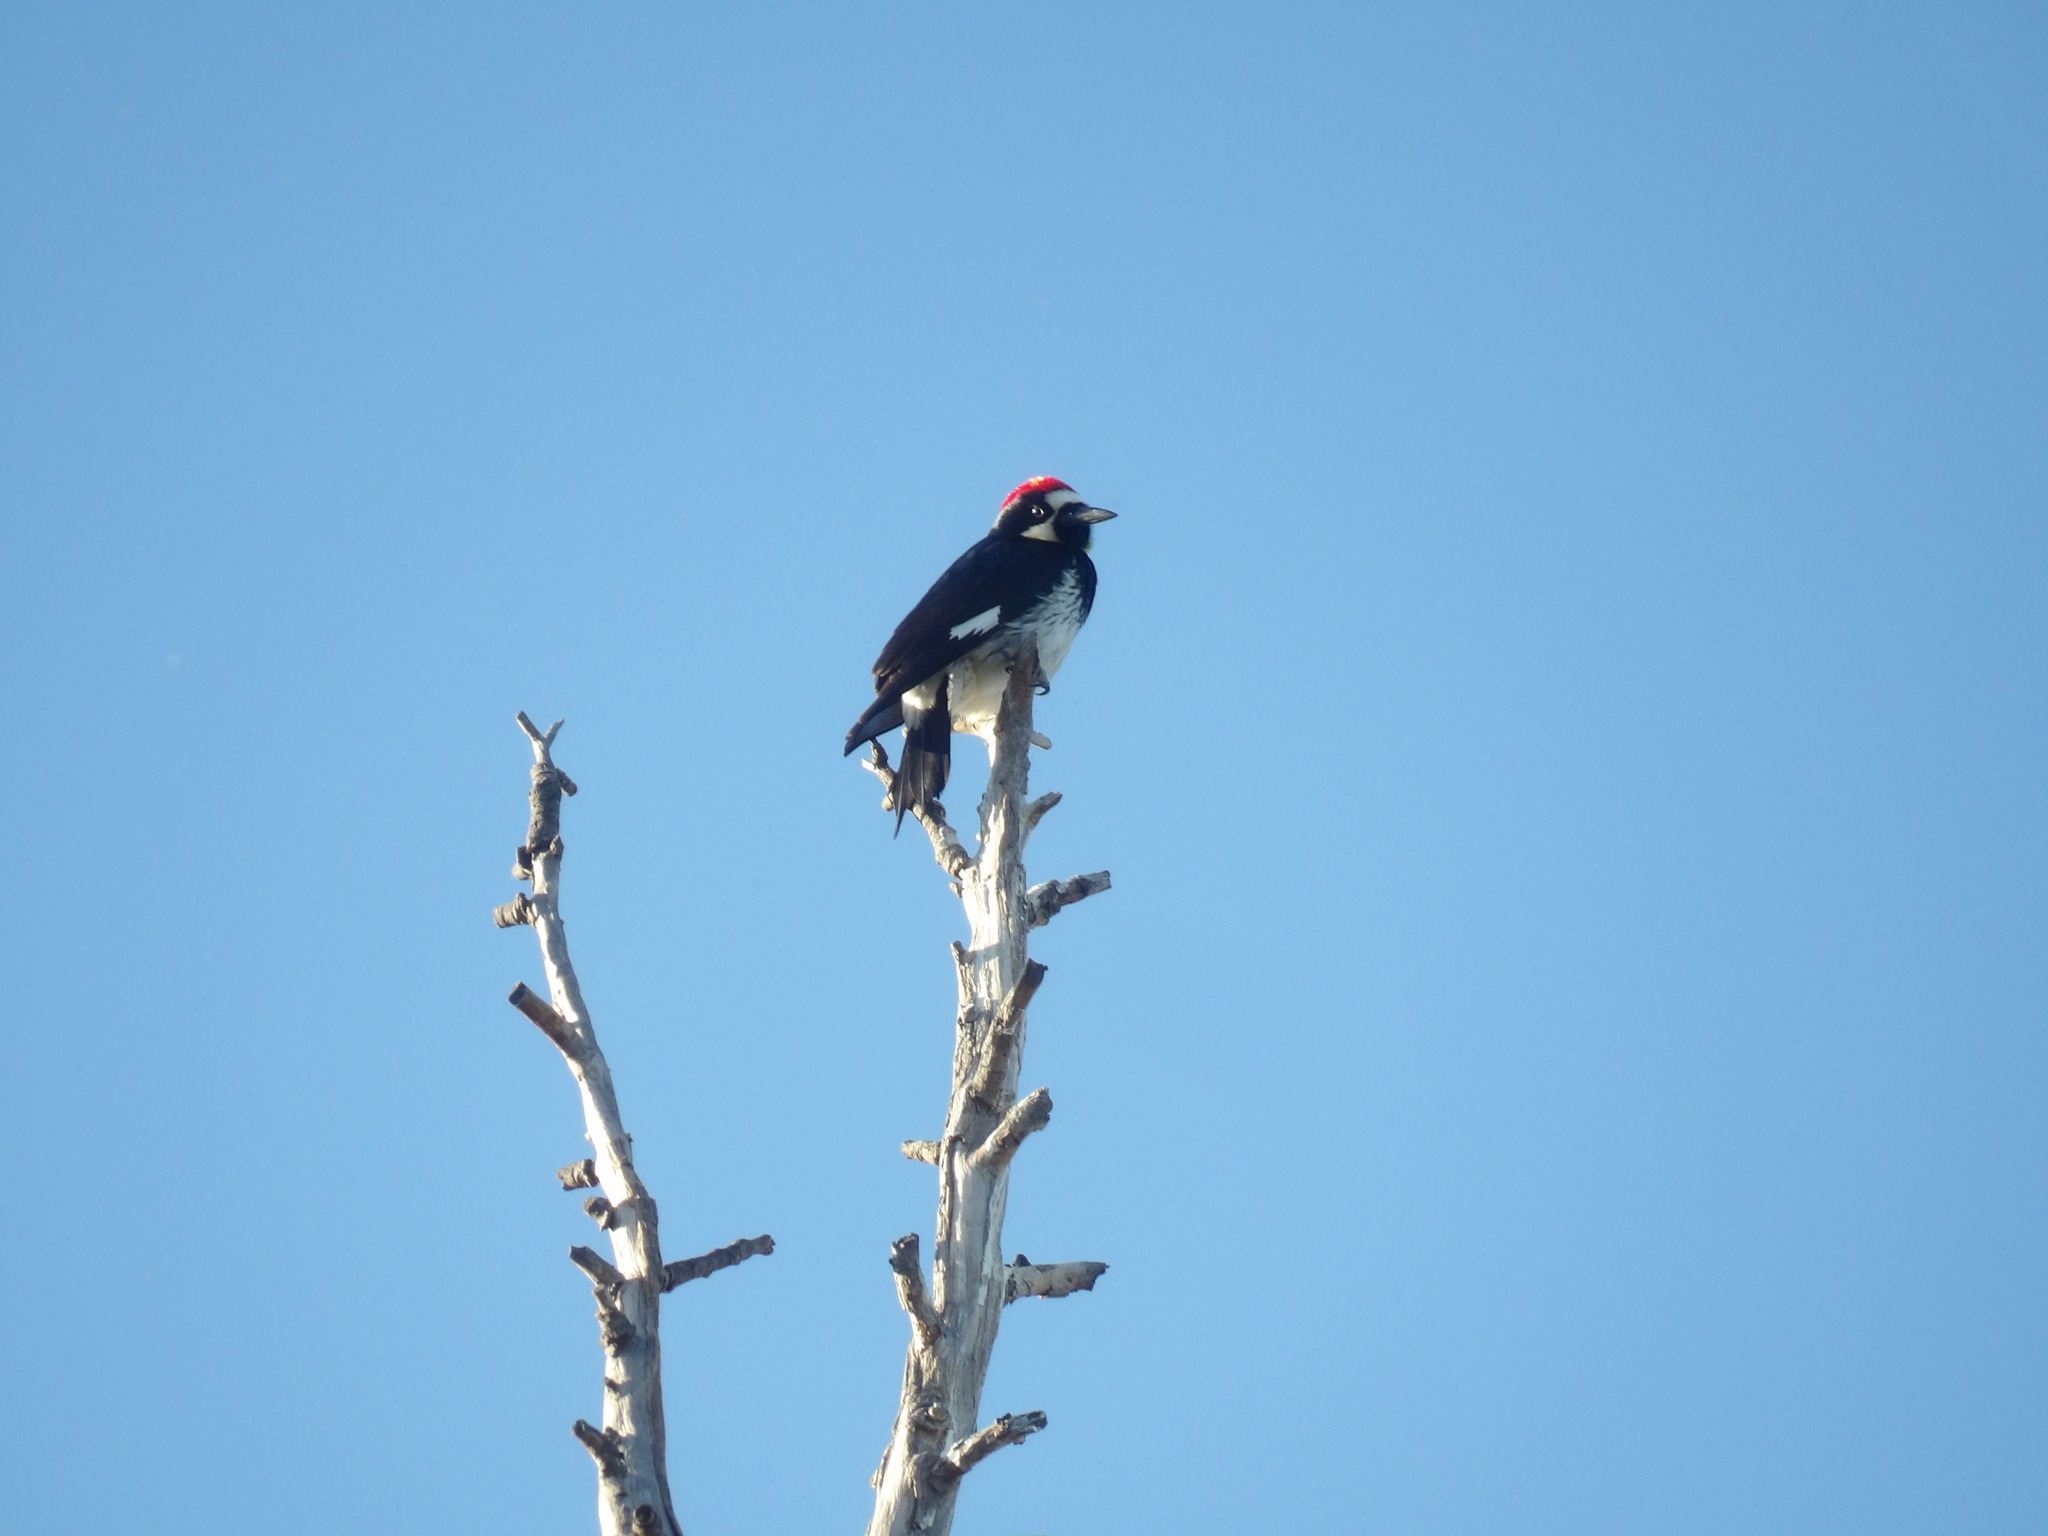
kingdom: Animalia
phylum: Chordata
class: Aves
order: Piciformes
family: Picidae
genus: Melanerpes
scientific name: Melanerpes formicivorus
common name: Acorn woodpecker
